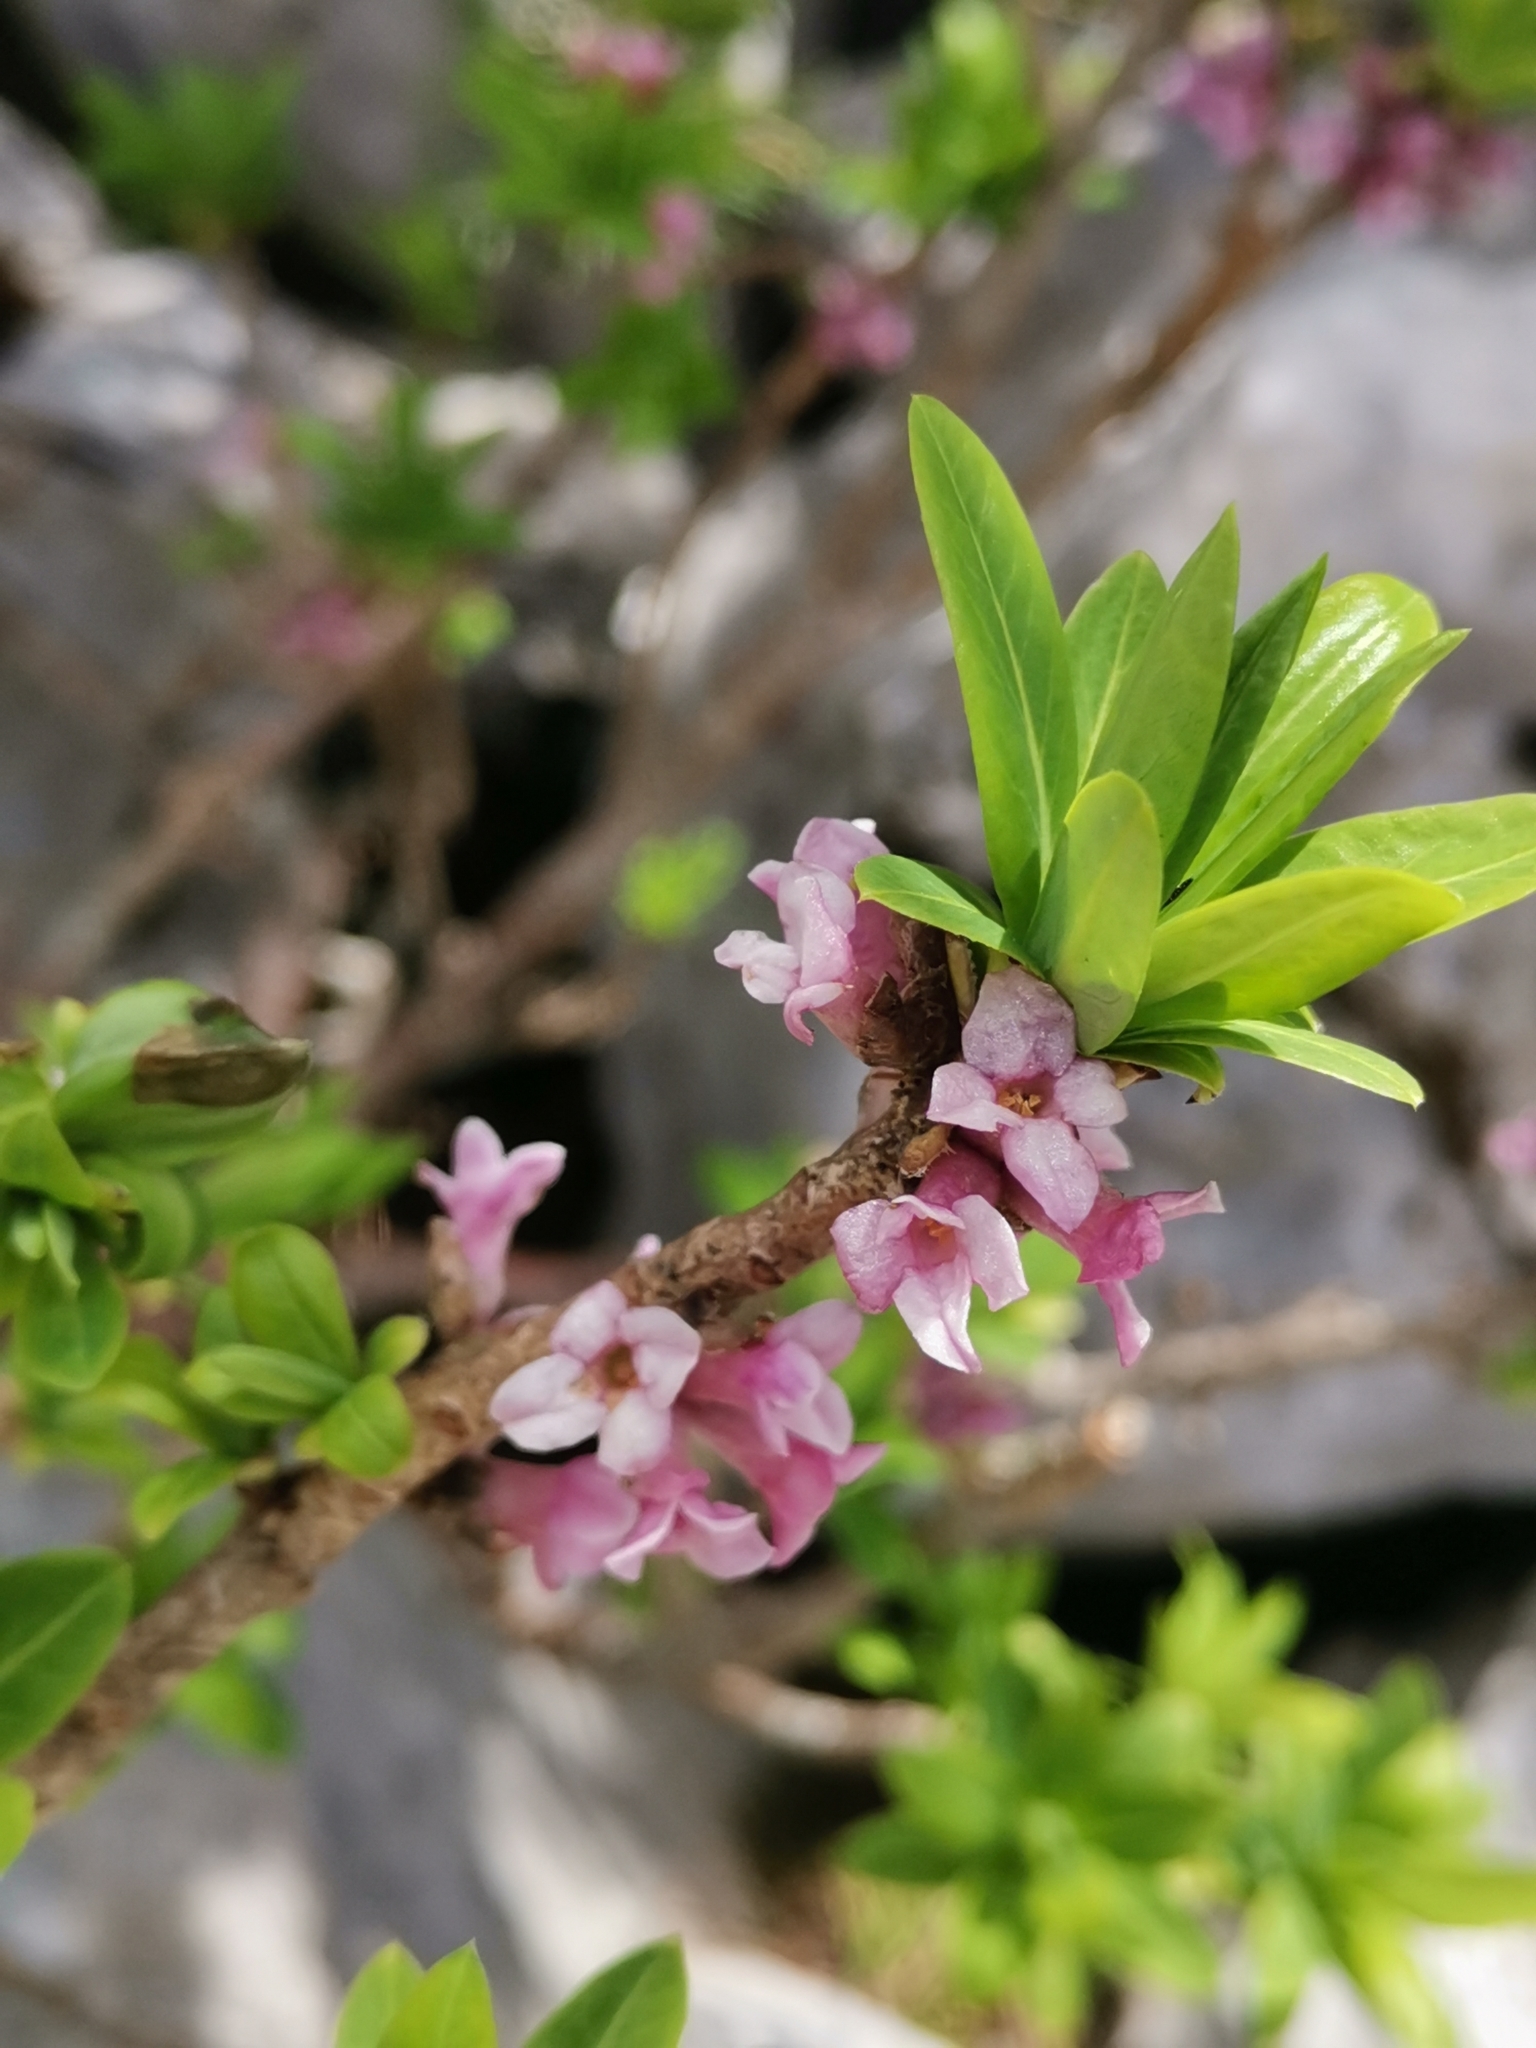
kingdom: Plantae
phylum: Tracheophyta
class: Magnoliopsida
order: Malvales
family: Thymelaeaceae
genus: Daphne
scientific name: Daphne mezereum
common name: Mezereon
